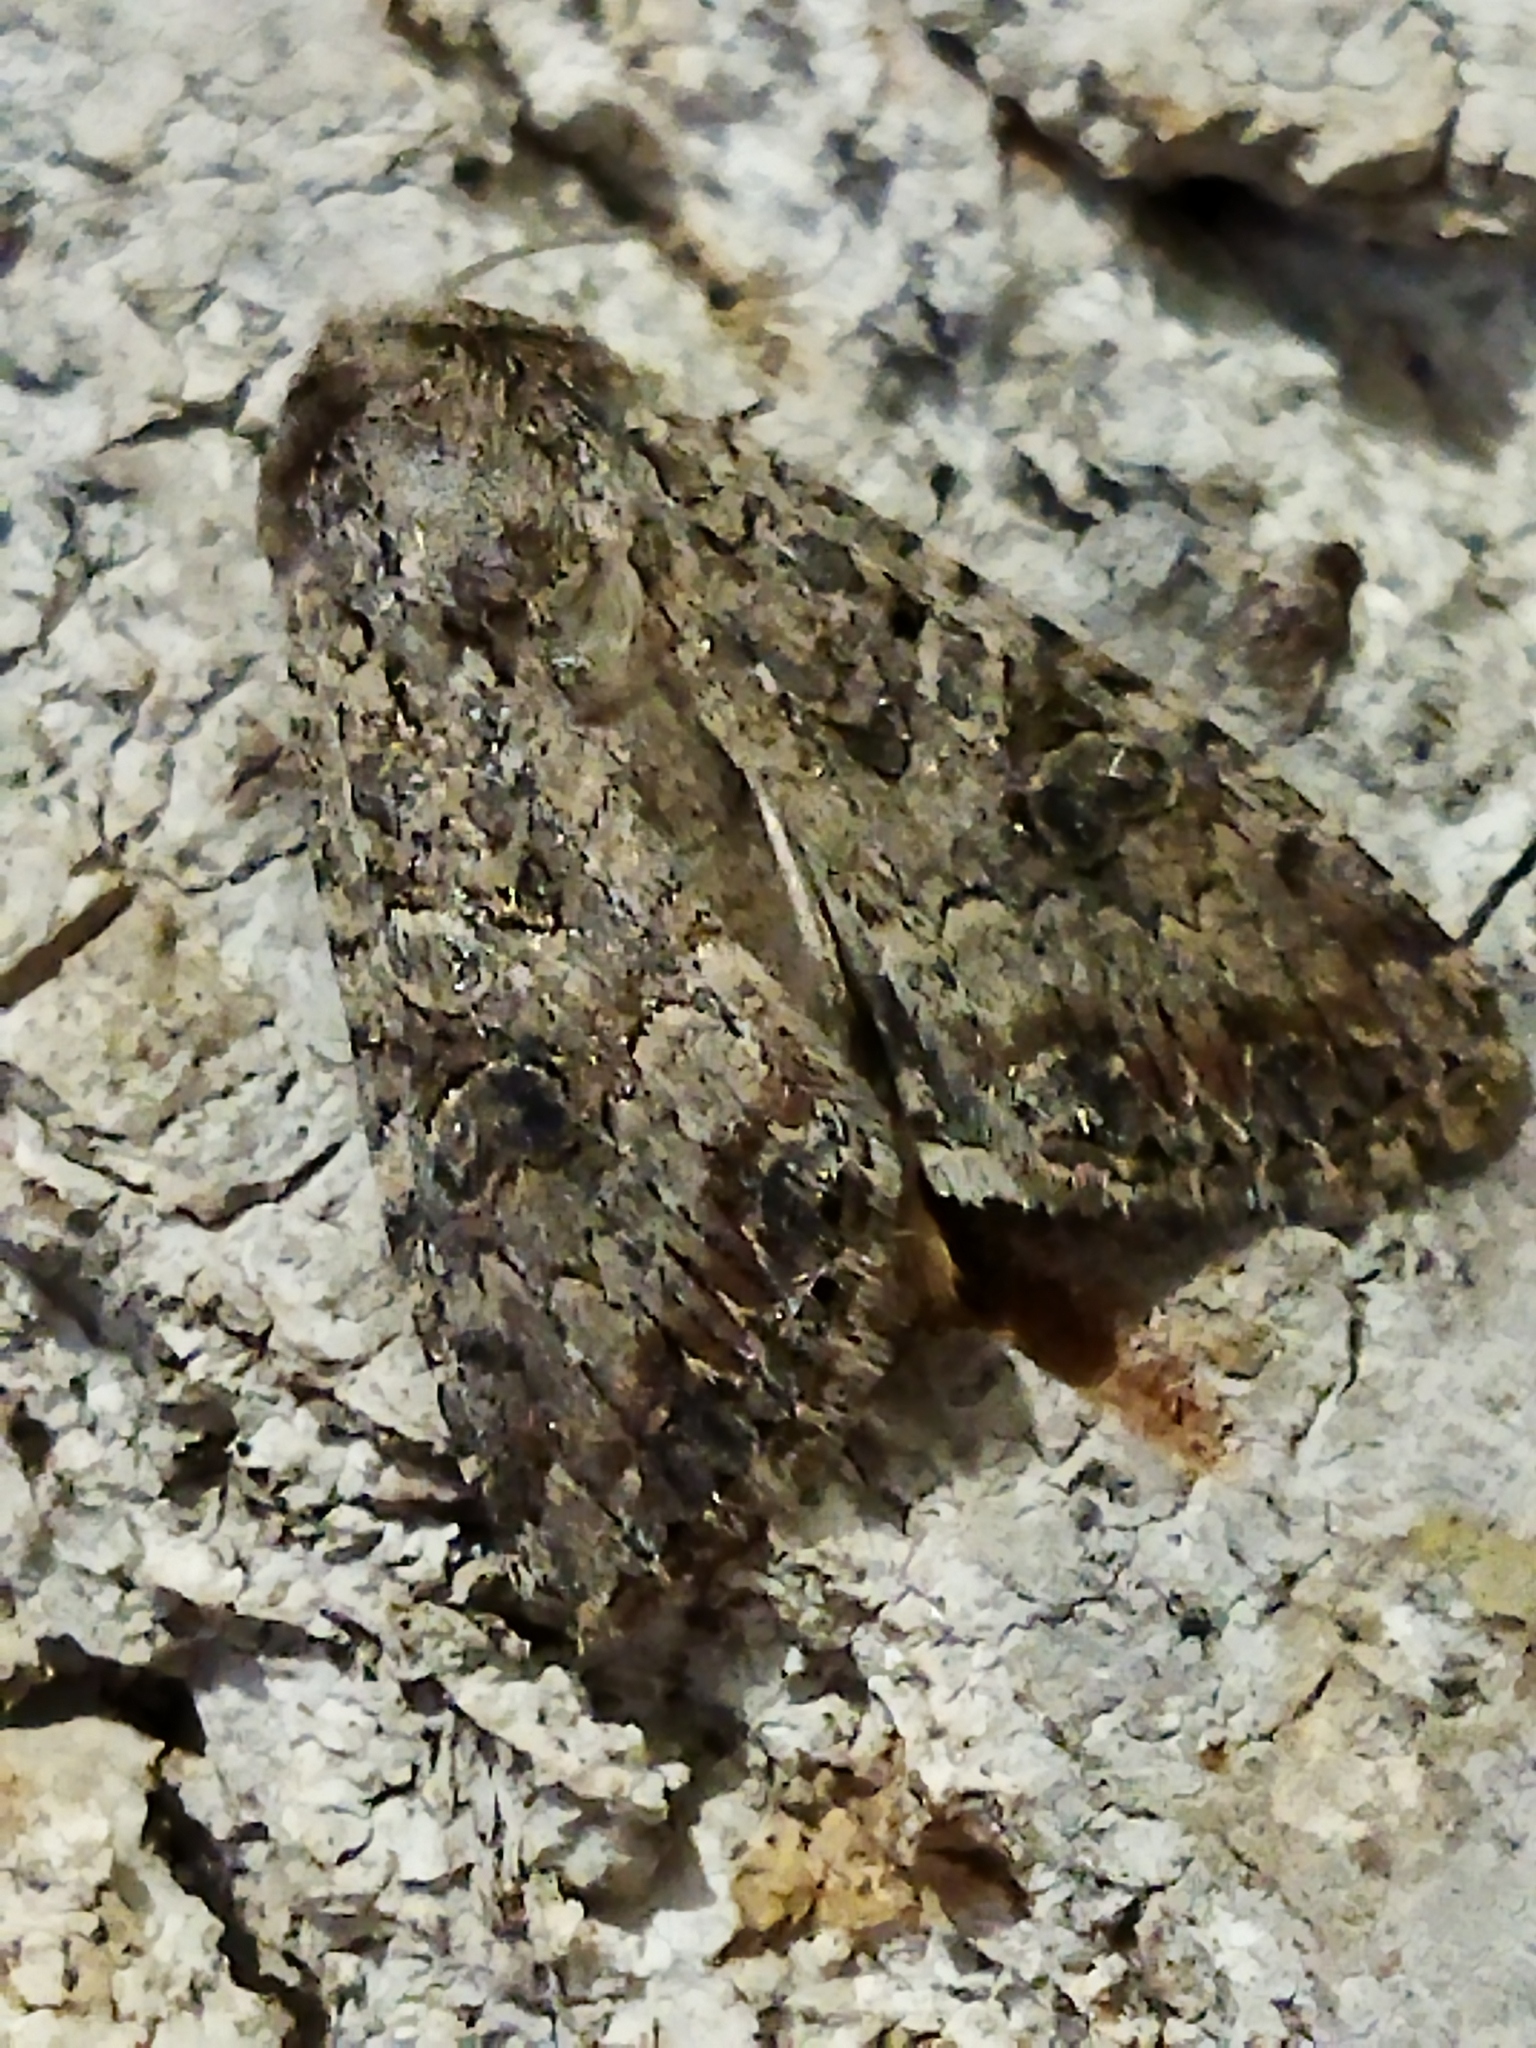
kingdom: Animalia
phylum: Arthropoda
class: Insecta
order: Lepidoptera
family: Noctuidae
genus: Anarta
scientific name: Anarta trifolii
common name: Clover cutworm moth
